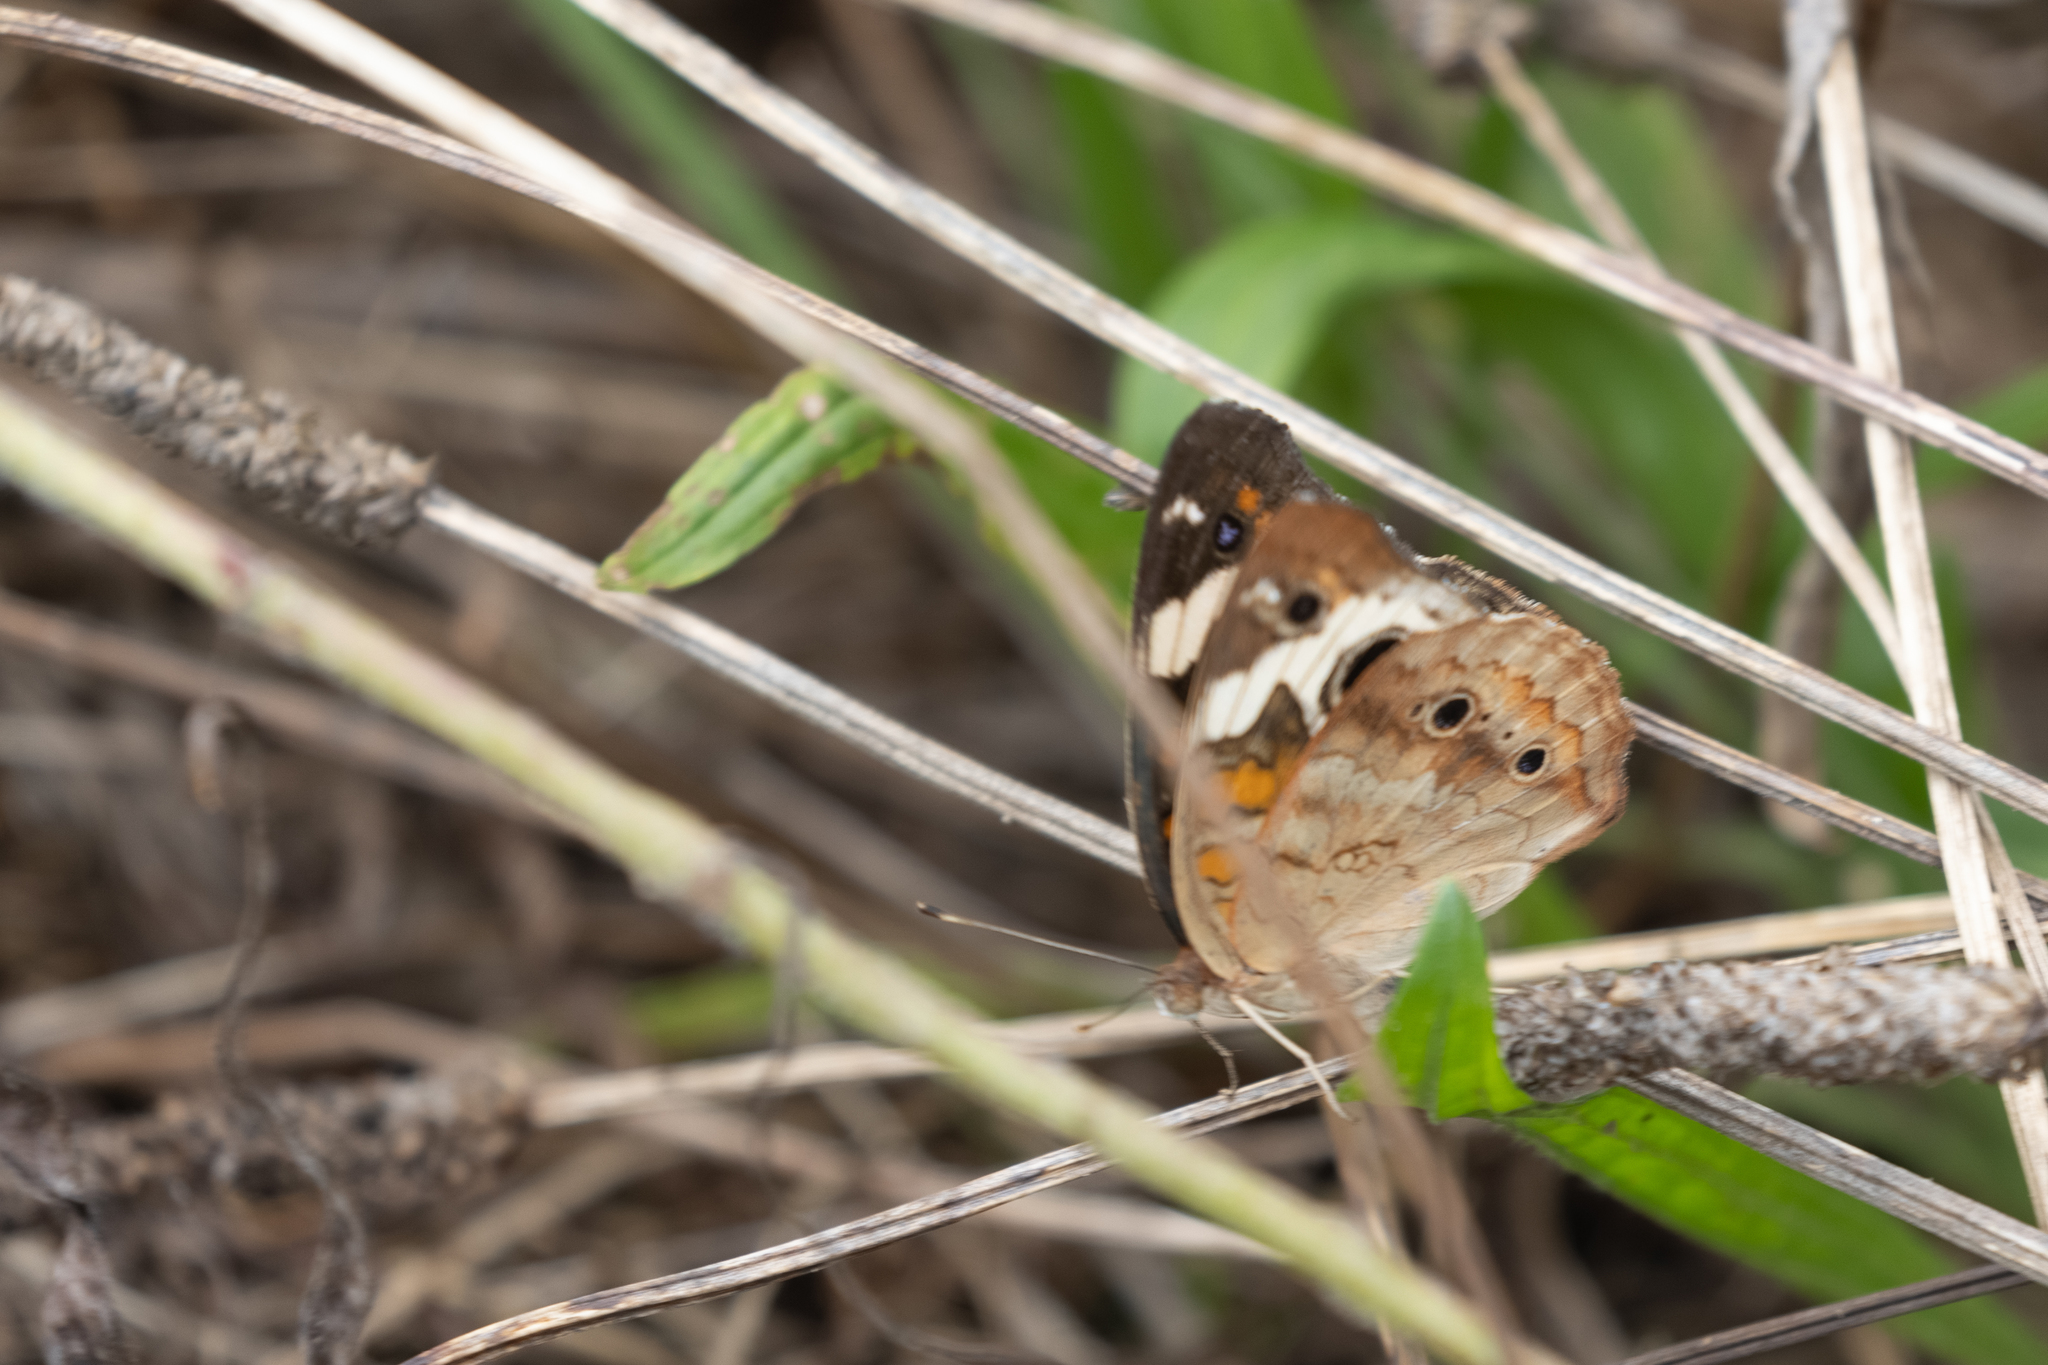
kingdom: Animalia
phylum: Arthropoda
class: Insecta
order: Lepidoptera
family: Nymphalidae
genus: Junonia
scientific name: Junonia coenia
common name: Common buckeye
